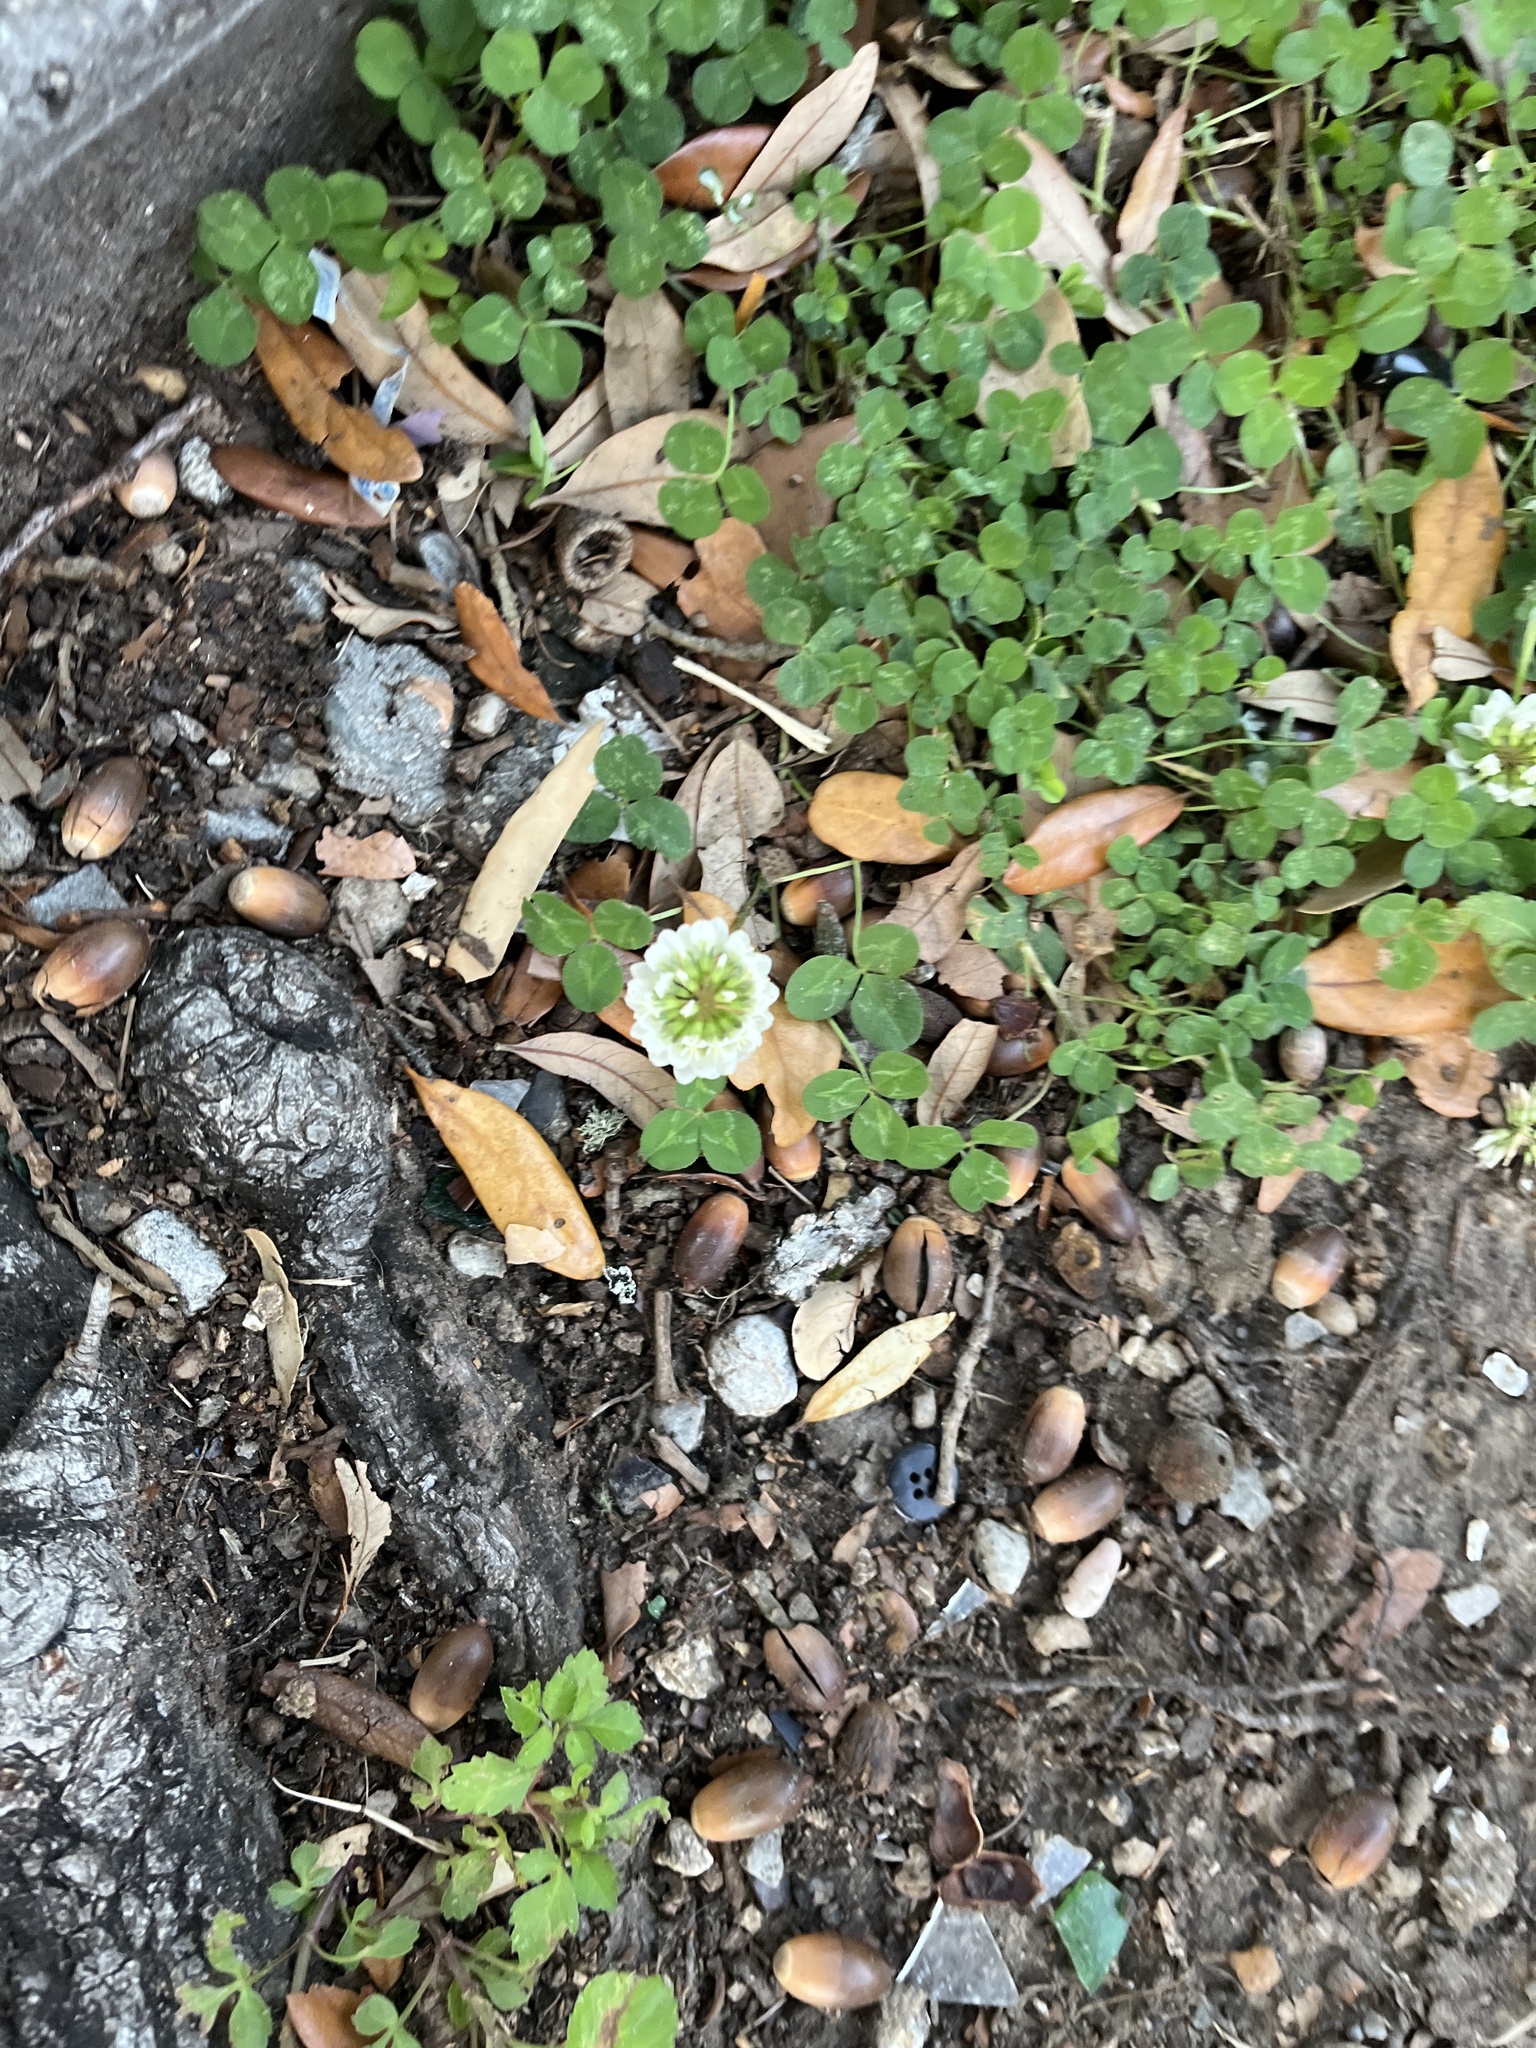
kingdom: Plantae
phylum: Tracheophyta
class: Magnoliopsida
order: Fabales
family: Fabaceae
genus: Trifolium
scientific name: Trifolium repens
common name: White clover
